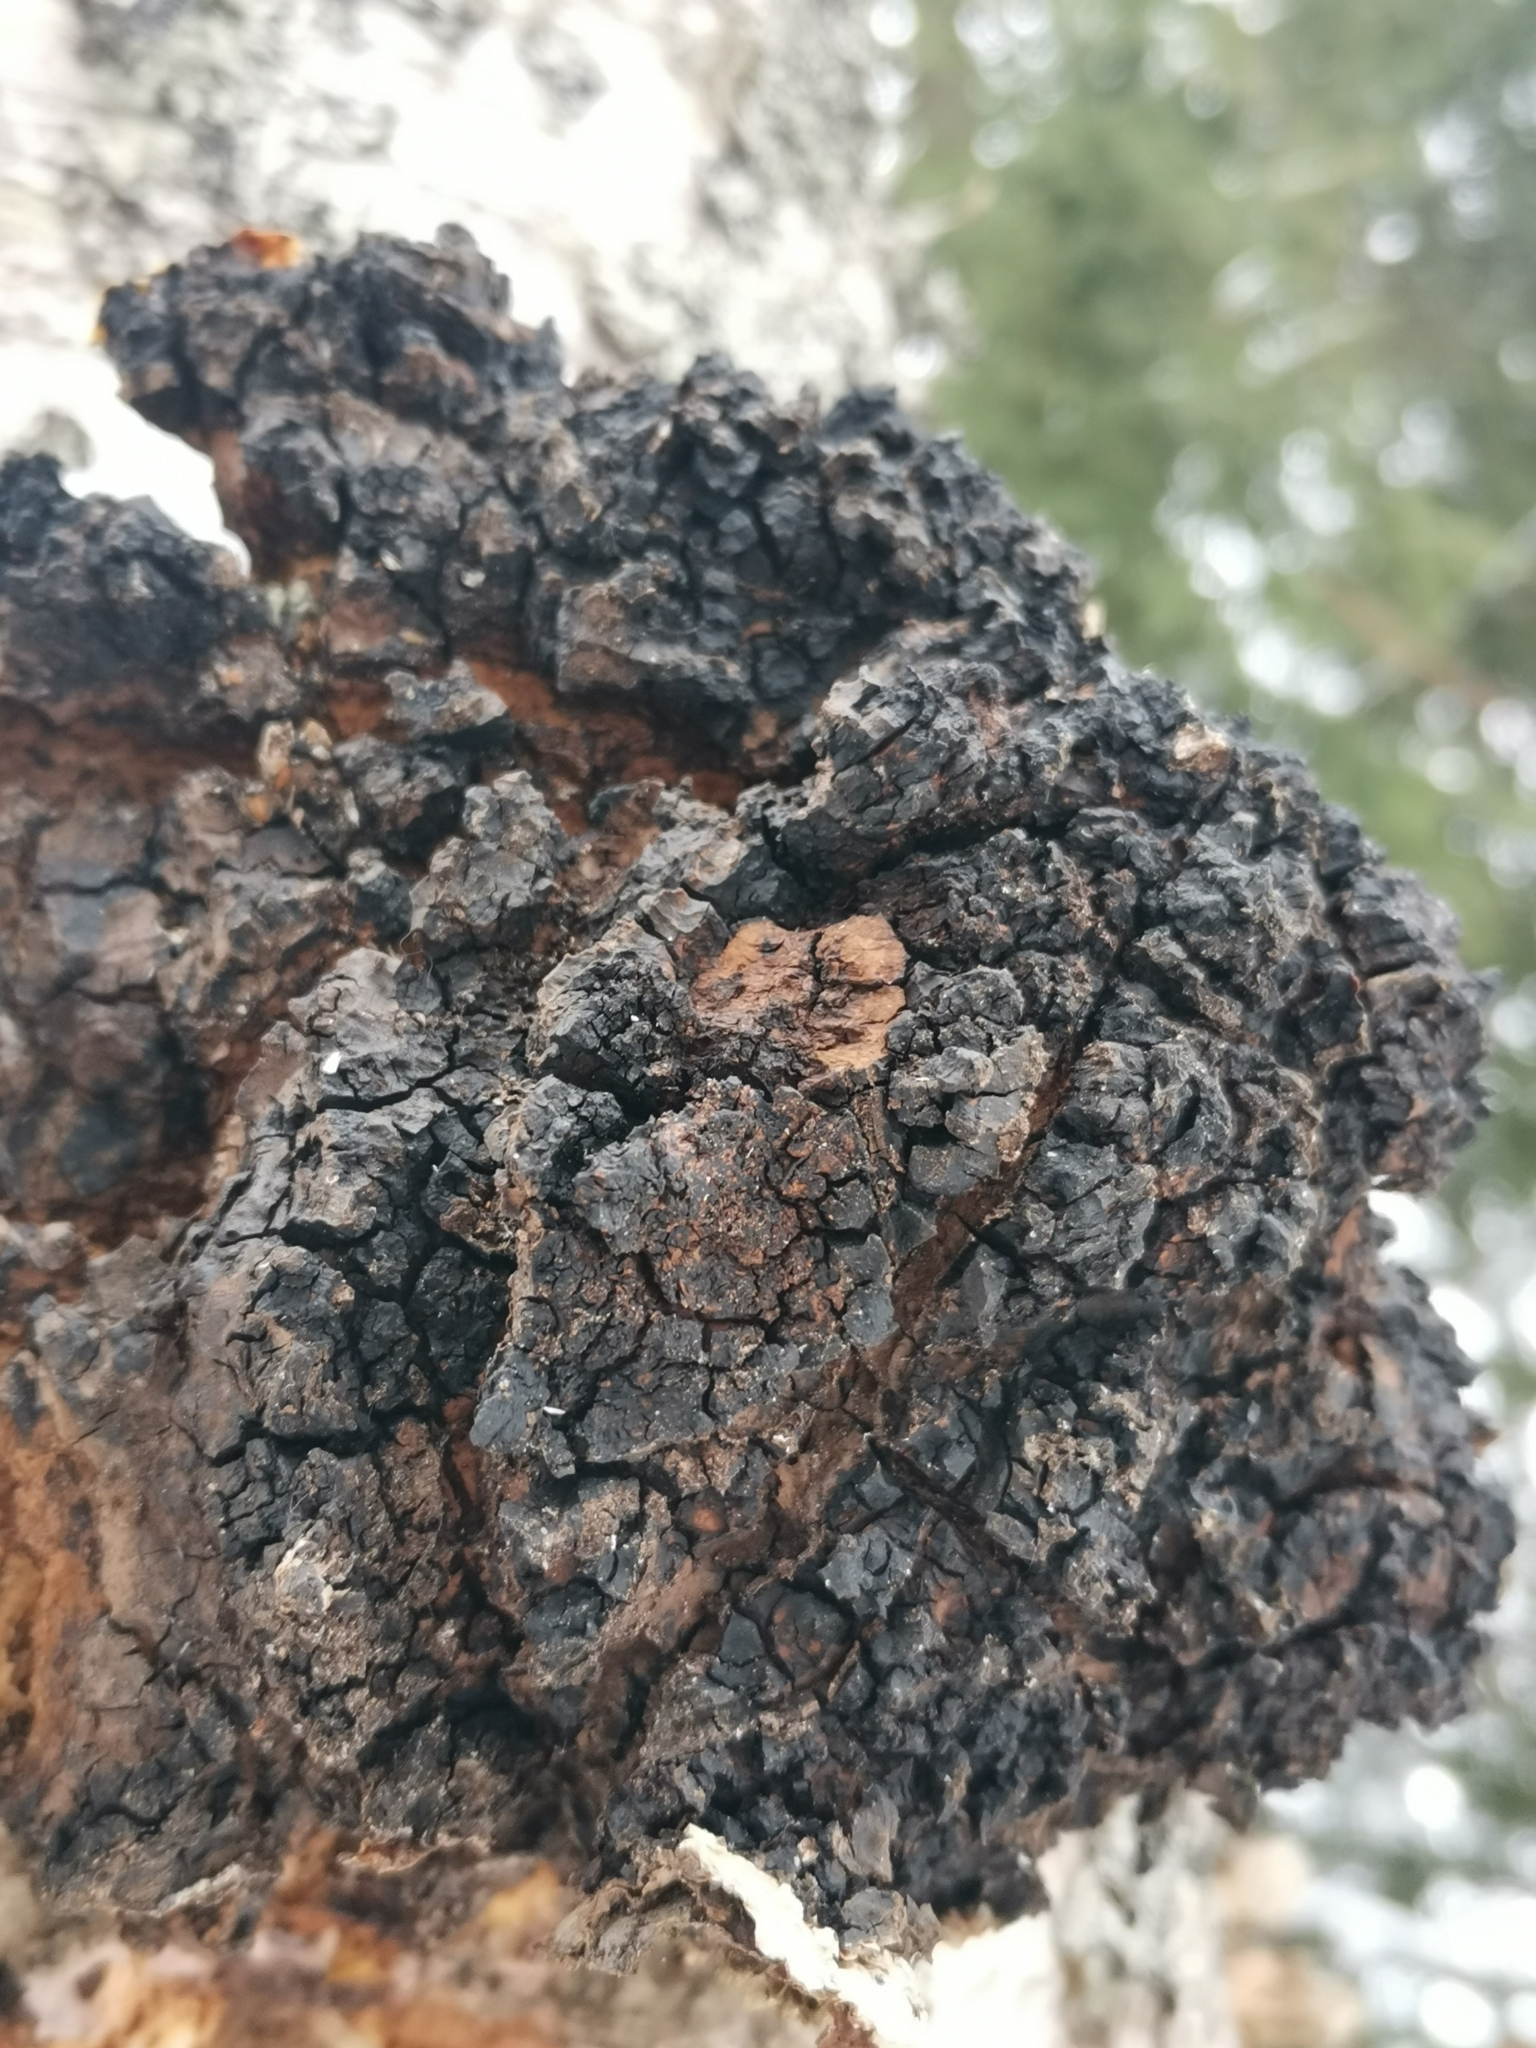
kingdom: Fungi
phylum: Basidiomycota
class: Agaricomycetes
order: Hymenochaetales
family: Hymenochaetaceae
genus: Inonotus
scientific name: Inonotus obliquus
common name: Chaga
